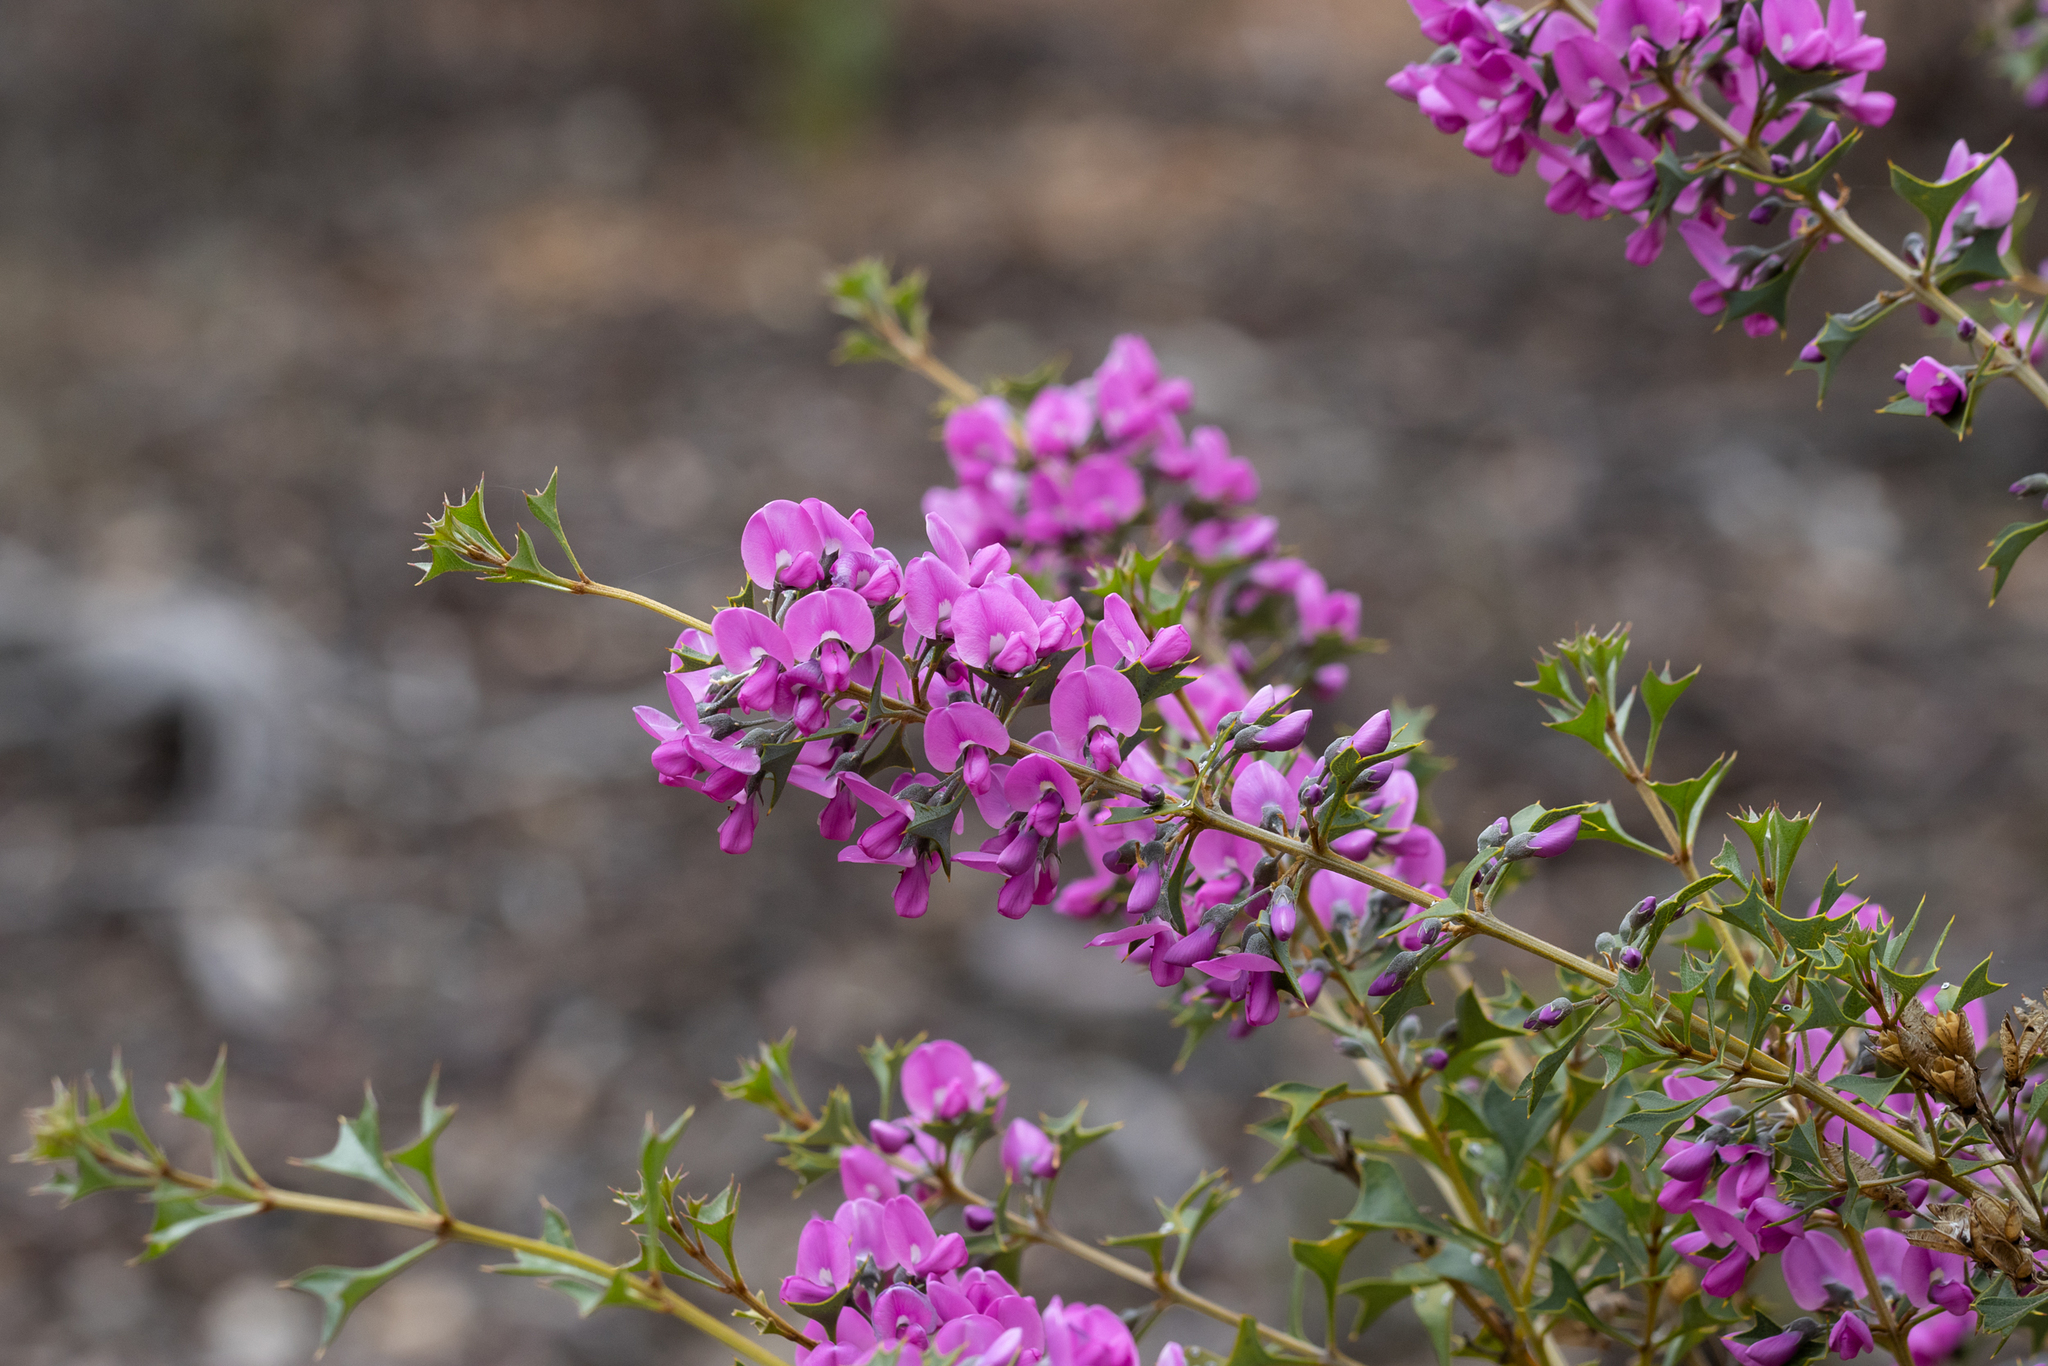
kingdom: Plantae
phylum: Tracheophyta
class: Magnoliopsida
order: Fabales
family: Fabaceae
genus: Mirbelia
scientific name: Mirbelia dilatata
